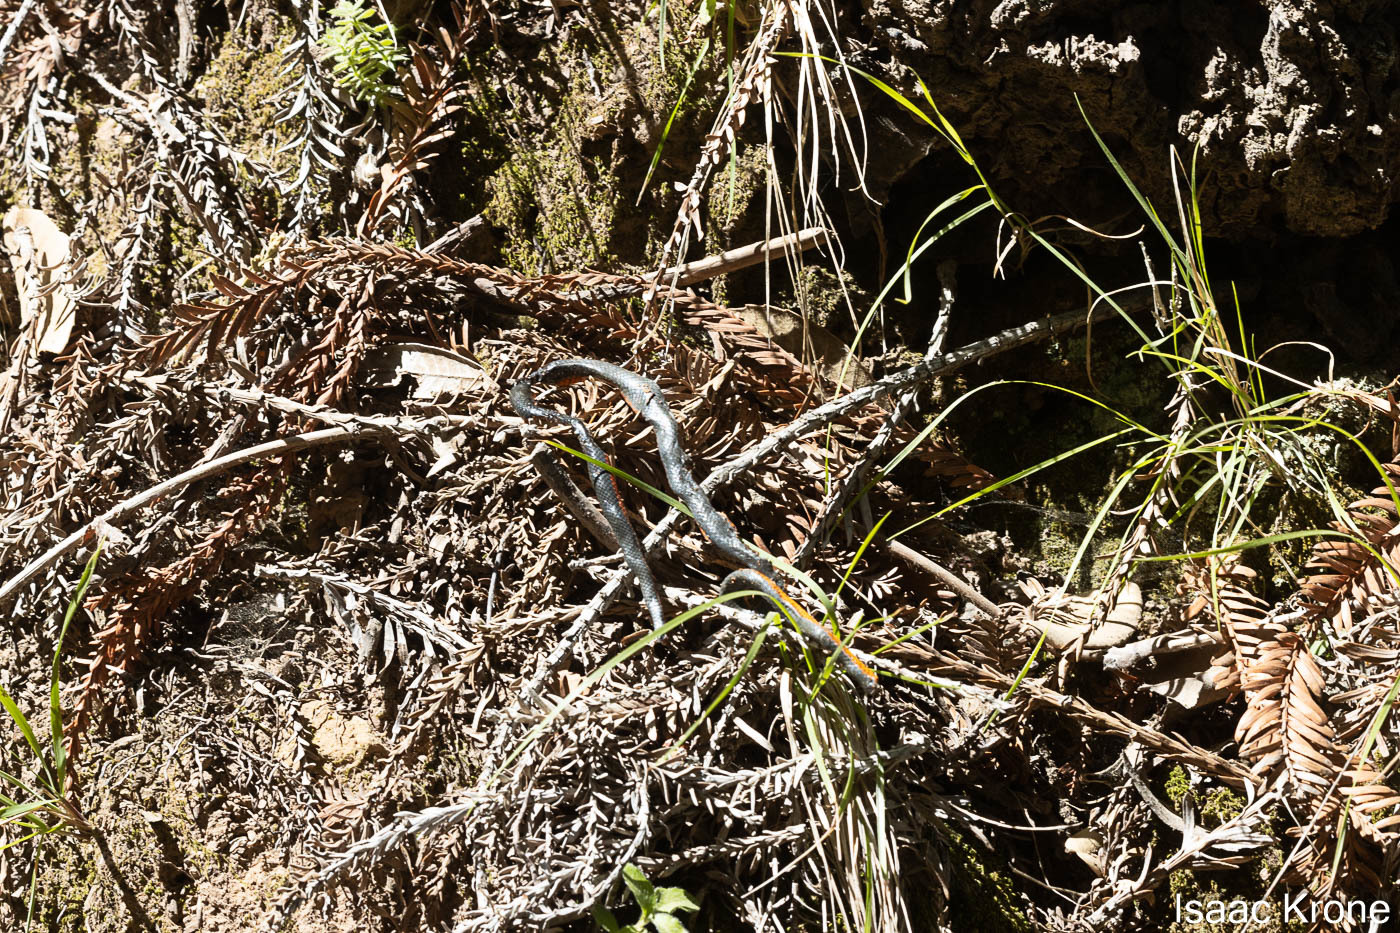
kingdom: Animalia
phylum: Chordata
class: Squamata
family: Colubridae
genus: Diadophis
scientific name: Diadophis punctatus
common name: Ringneck snake
